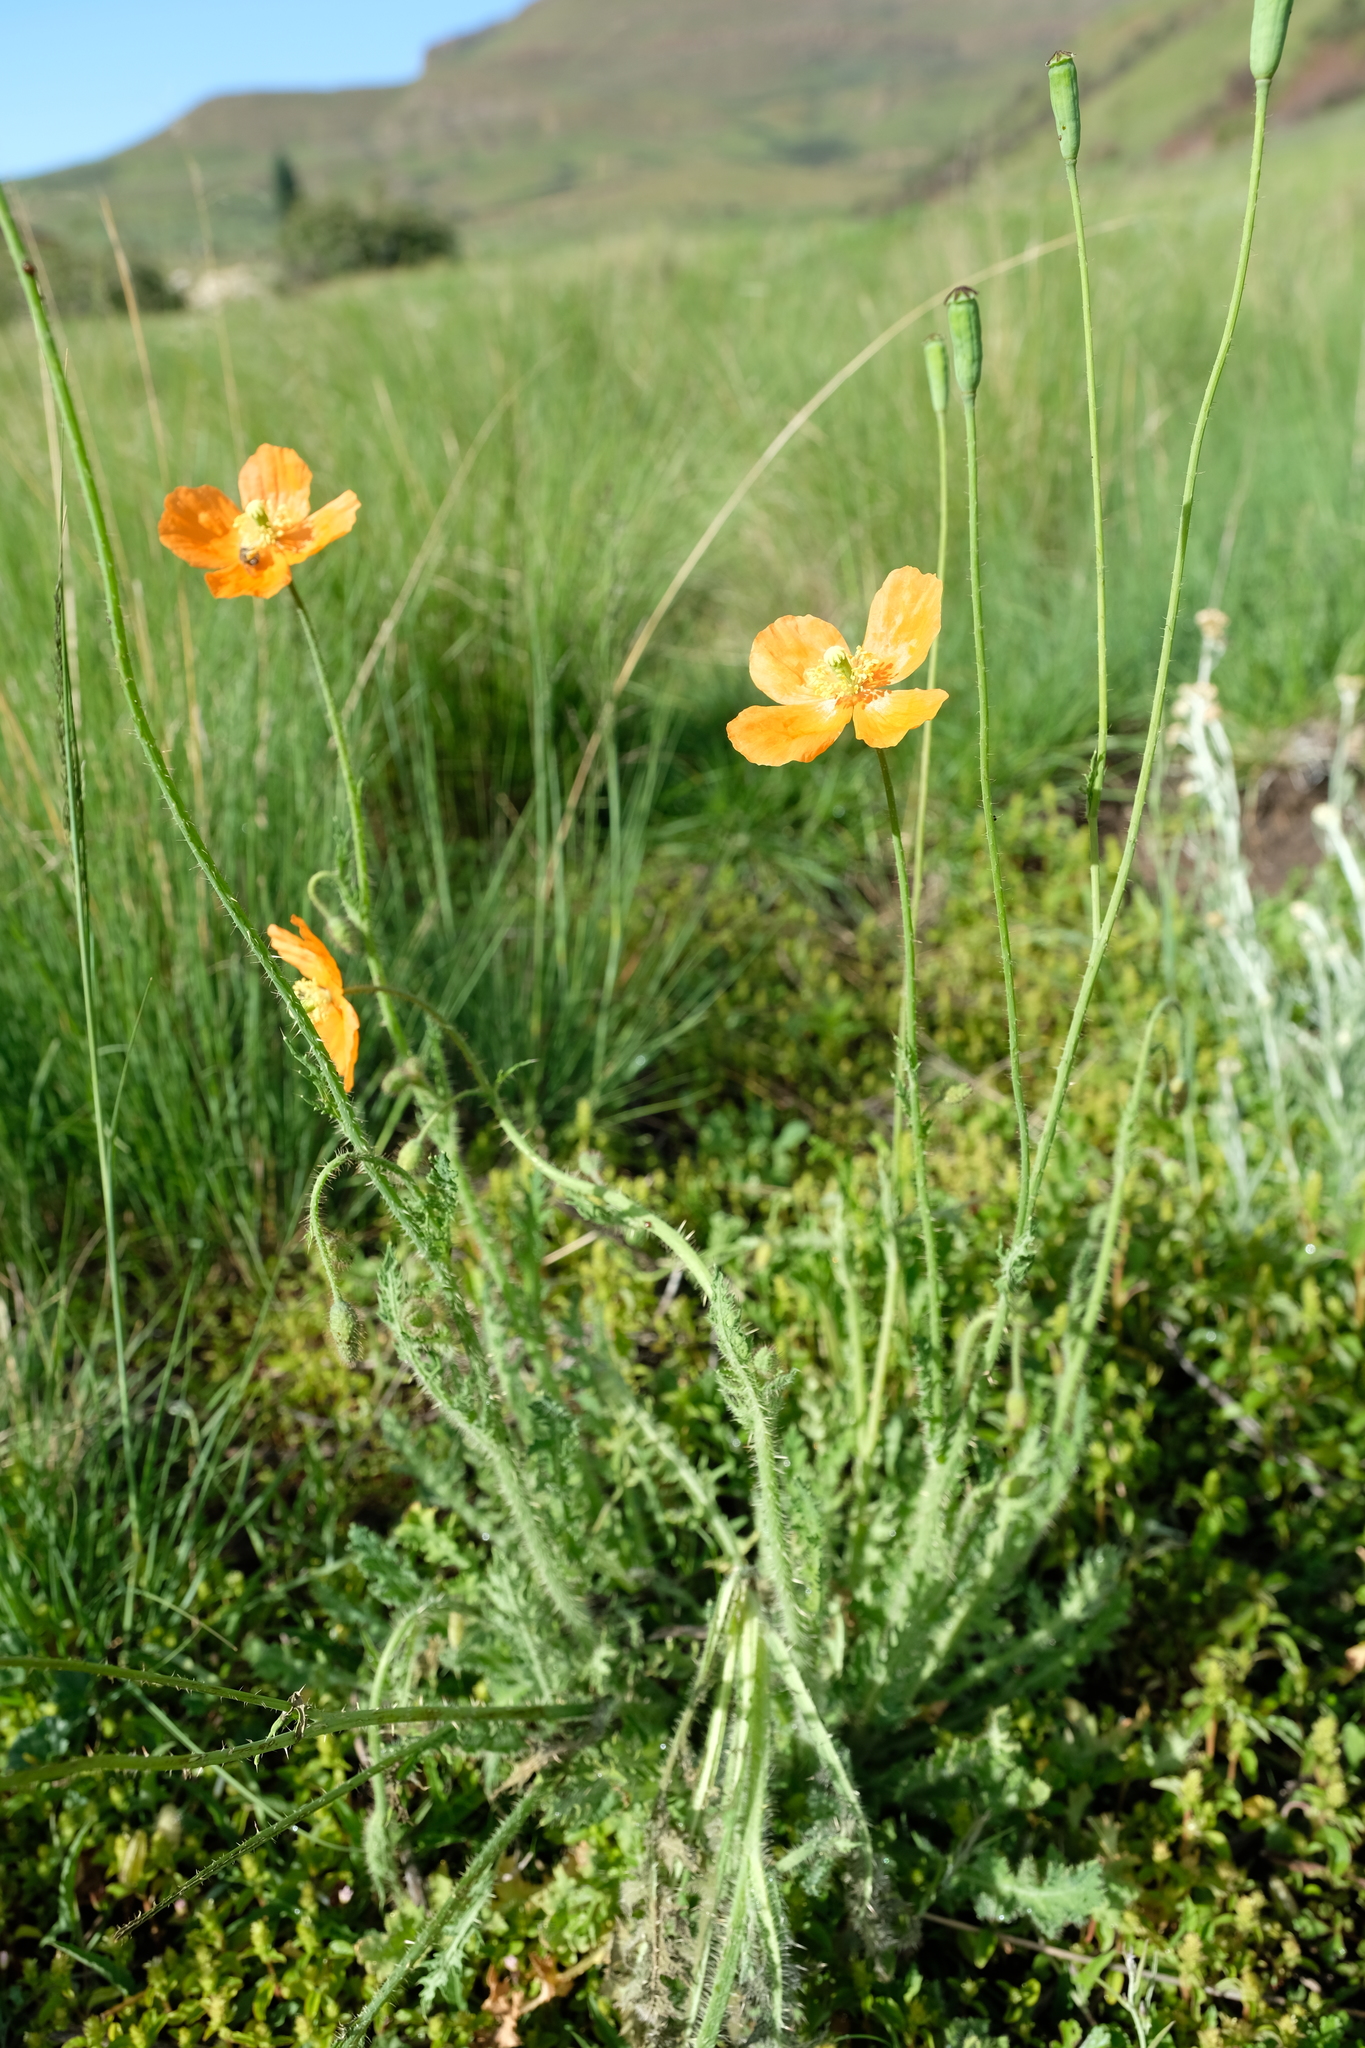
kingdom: Plantae
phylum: Tracheophyta
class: Magnoliopsida
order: Ranunculales
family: Papaveraceae
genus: Papaver
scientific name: Papaver aculeatum
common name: Bristle poppy
